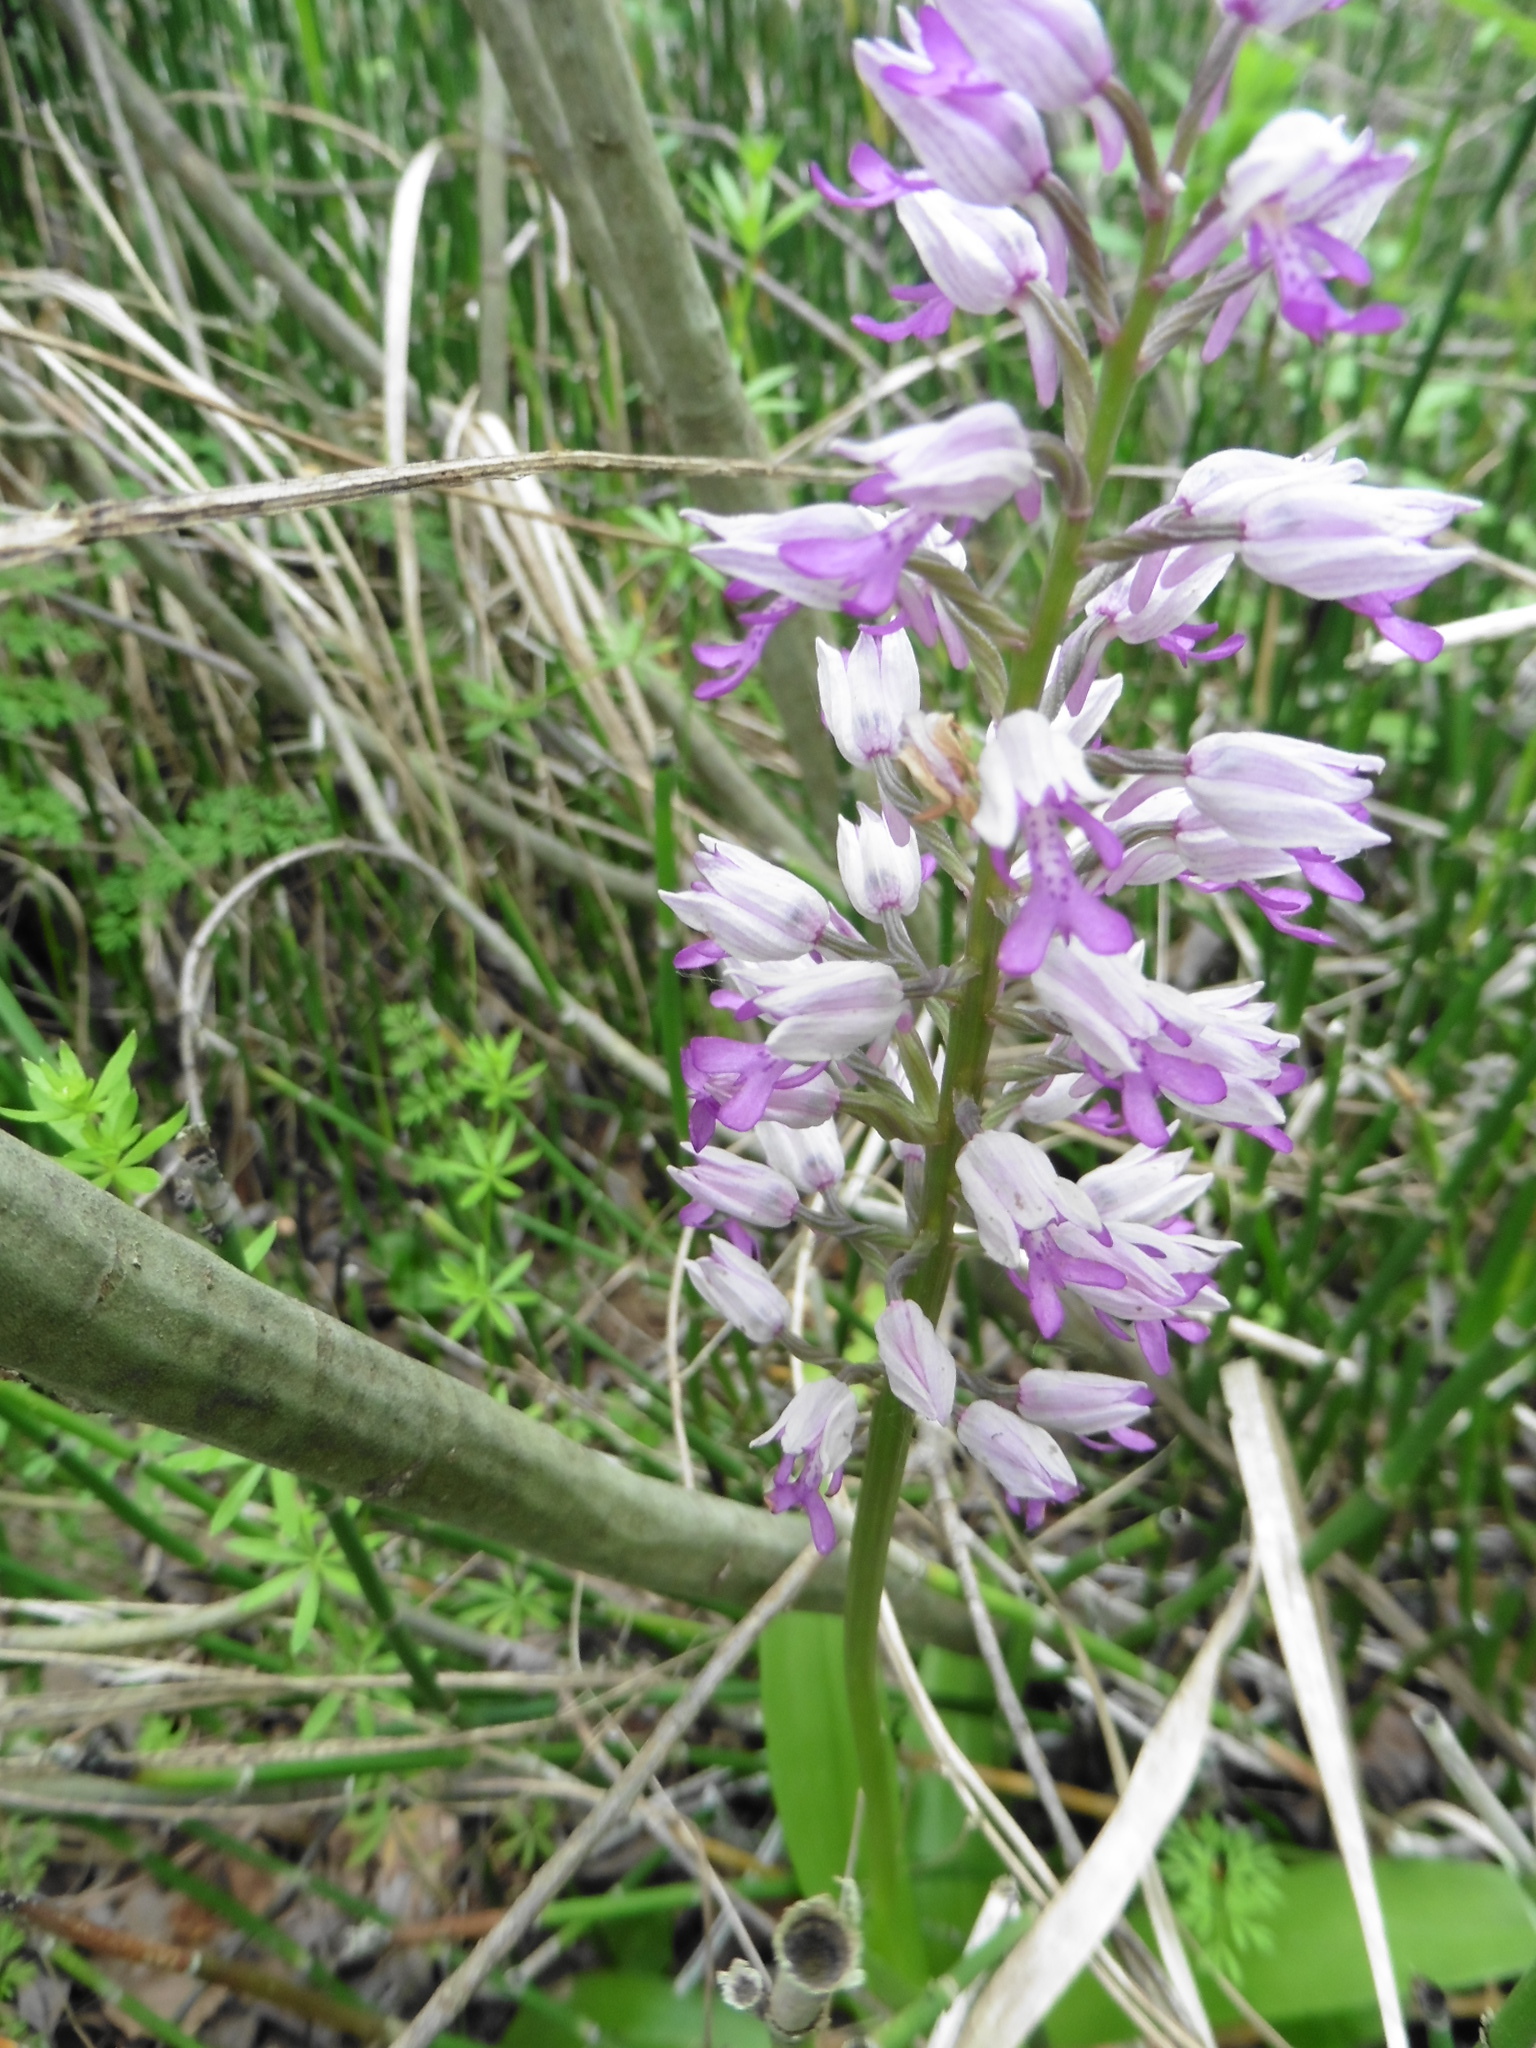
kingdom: Plantae
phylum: Tracheophyta
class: Liliopsida
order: Asparagales
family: Orchidaceae
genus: Orchis
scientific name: Orchis militaris
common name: Military orchid
